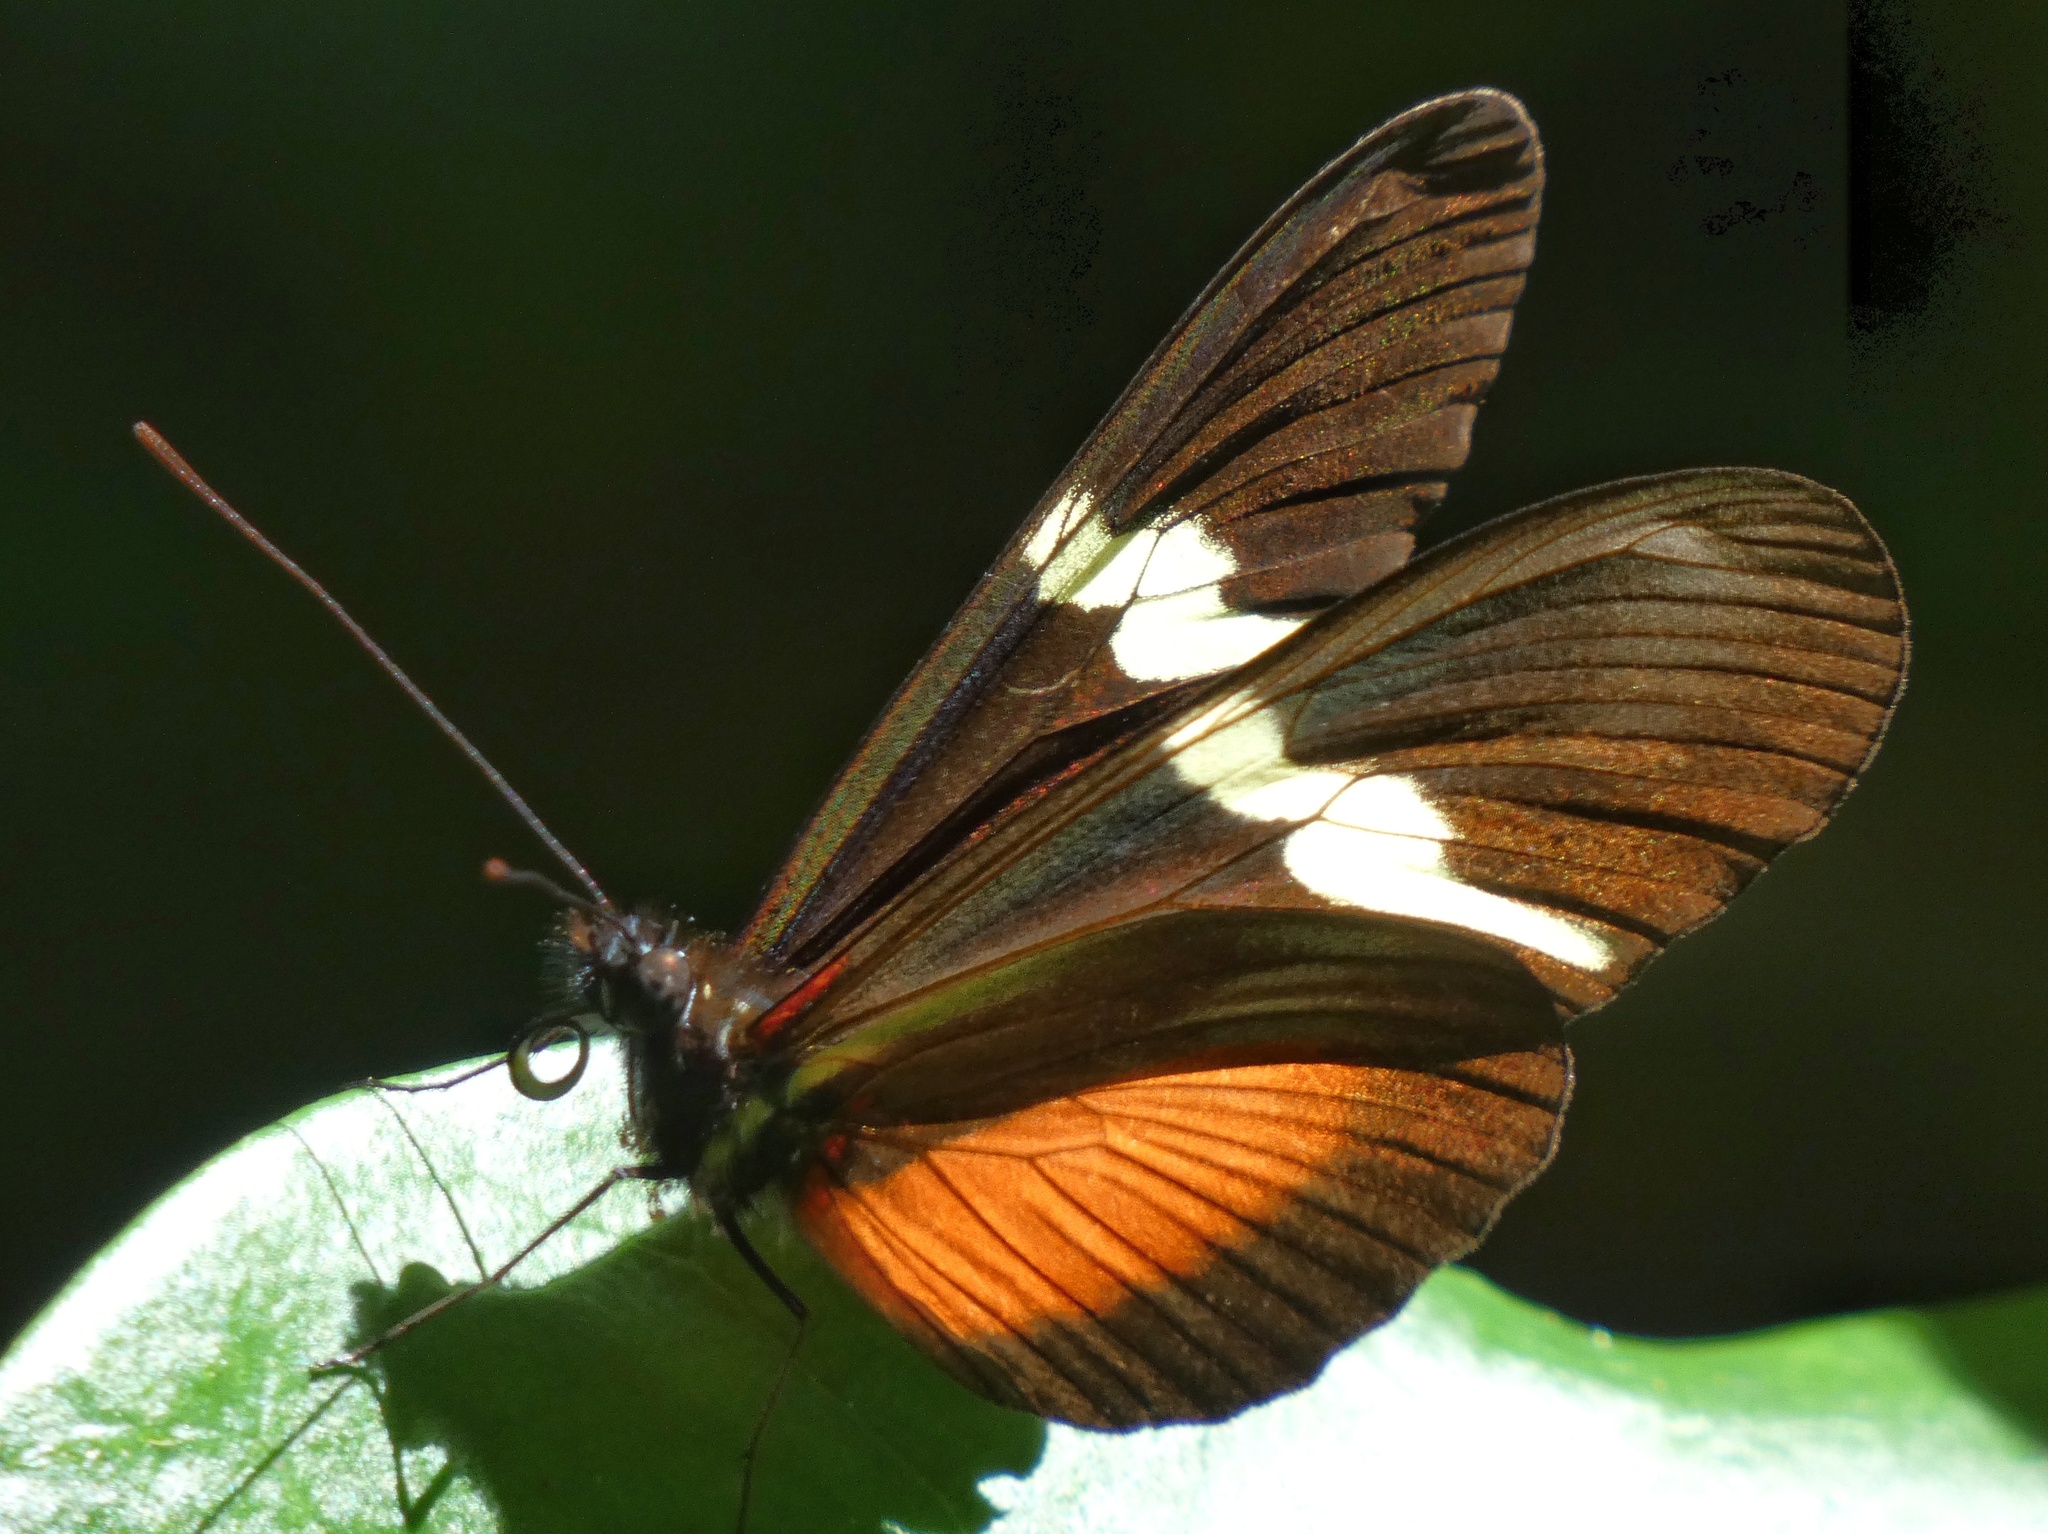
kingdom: Animalia
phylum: Arthropoda
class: Insecta
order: Lepidoptera
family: Nymphalidae
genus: Heliconius
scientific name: Heliconius clysonymus
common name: Clysonymus longwing
